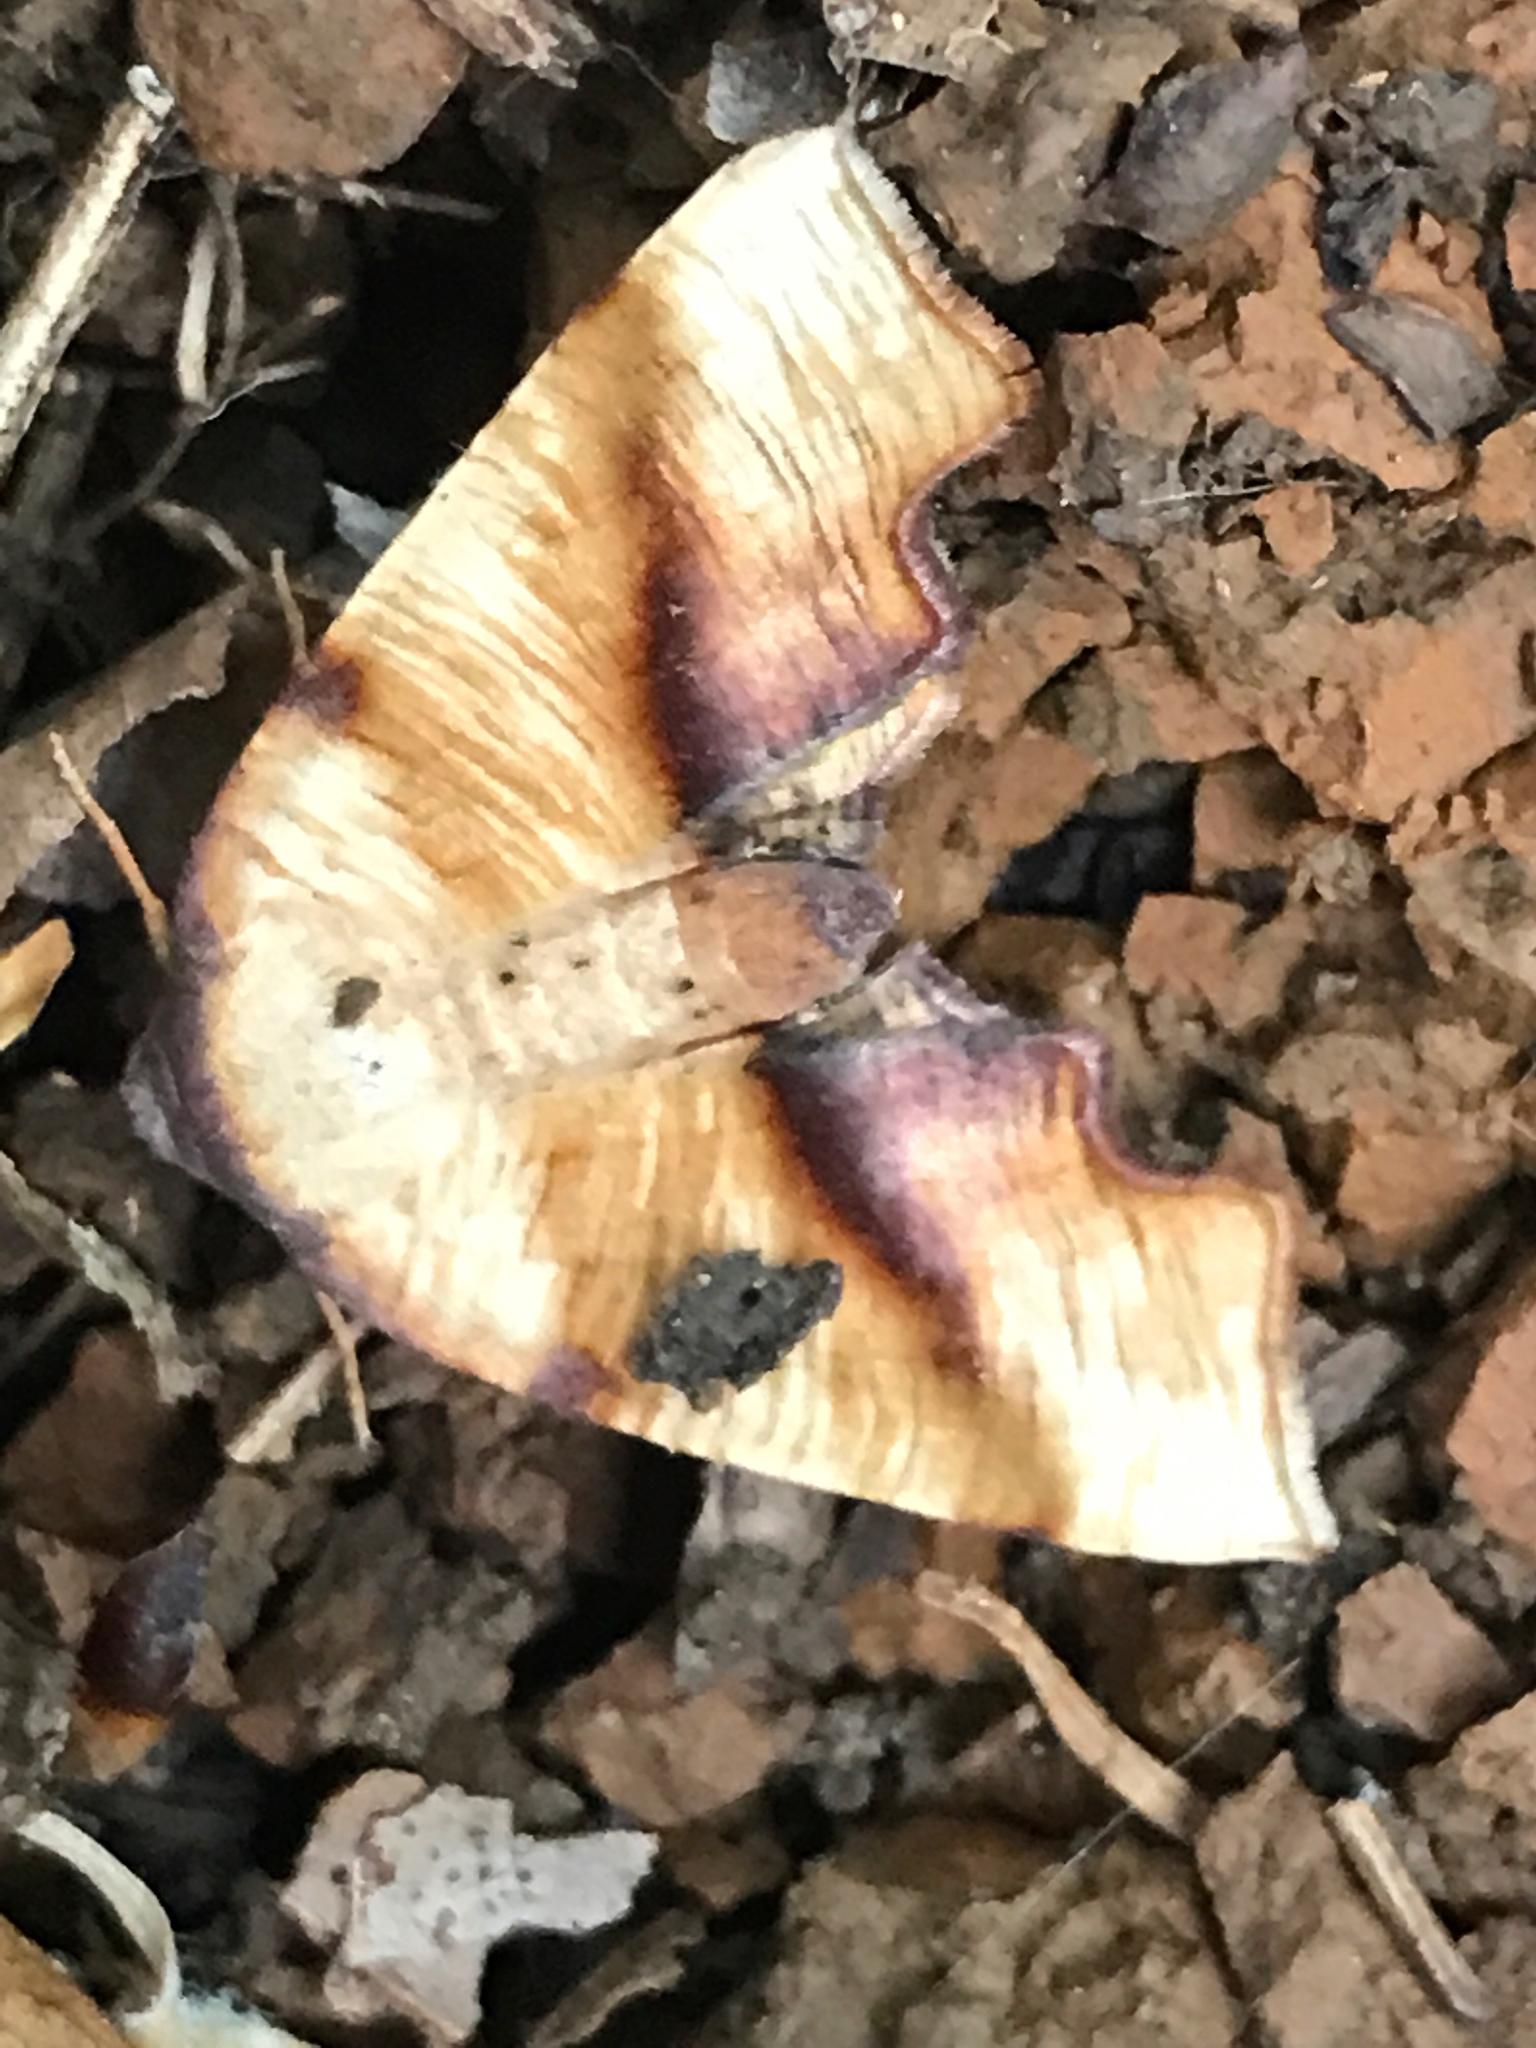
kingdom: Animalia
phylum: Arthropoda
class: Insecta
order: Lepidoptera
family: Geometridae
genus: Plagodis
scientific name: Plagodis fervidaria
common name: Fervid plagodis
